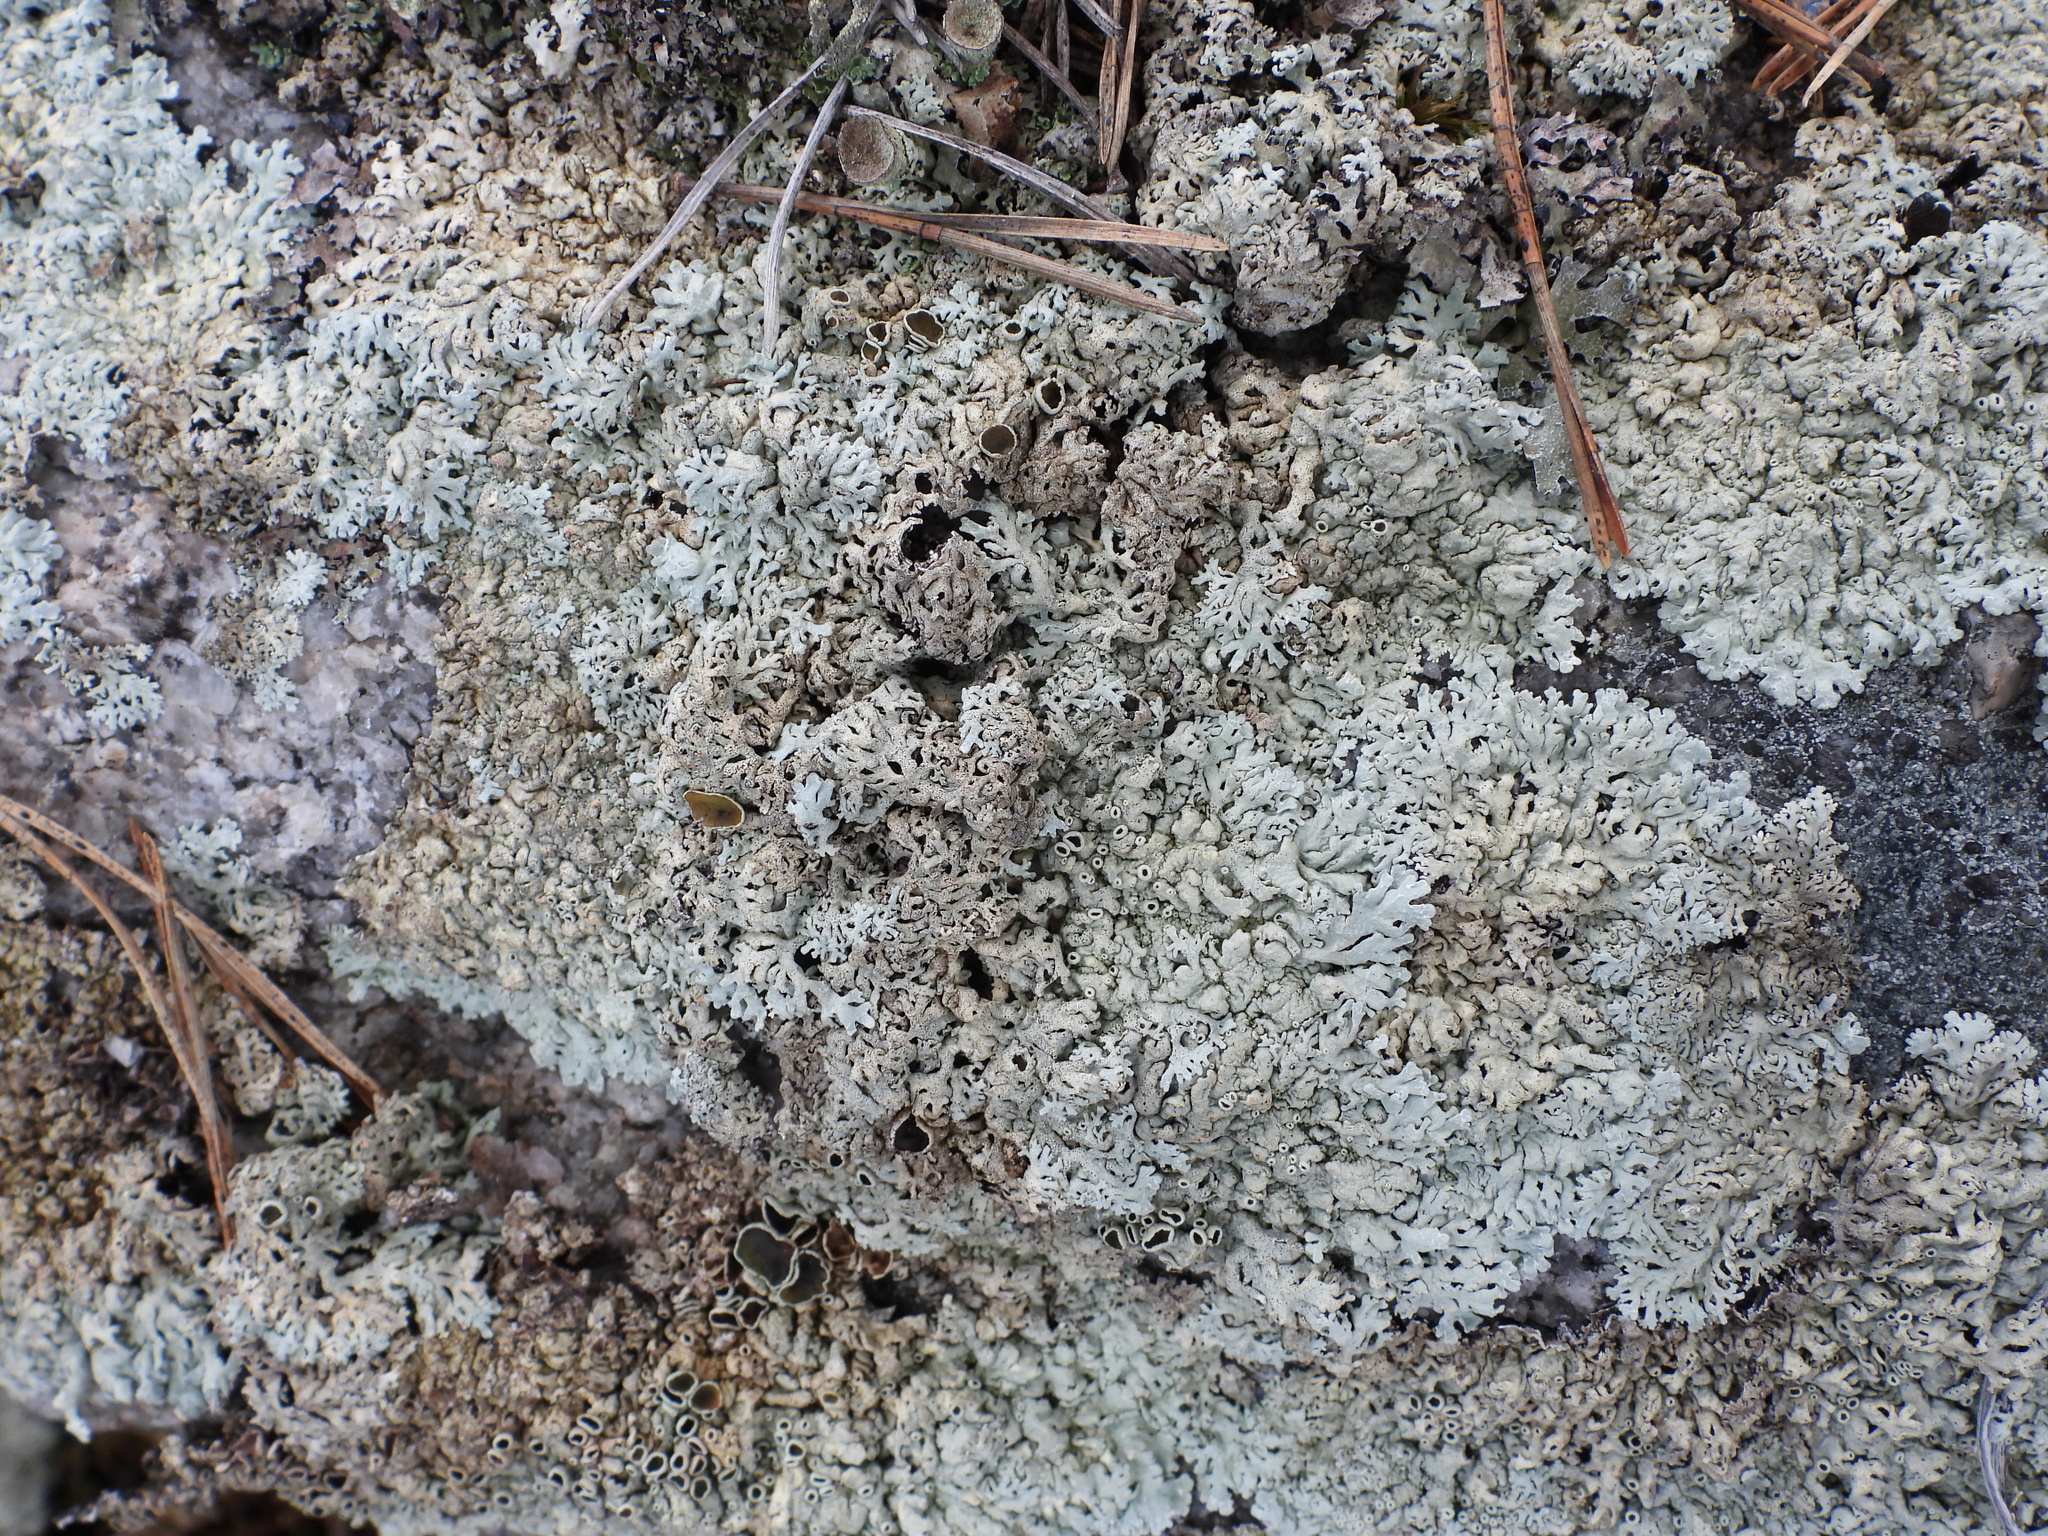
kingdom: Fungi
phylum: Ascomycota
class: Lecanoromycetes
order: Lecanorales
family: Parmeliaceae
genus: Arctoparmelia
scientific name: Arctoparmelia centrifuga
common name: Concentric ring lichen
